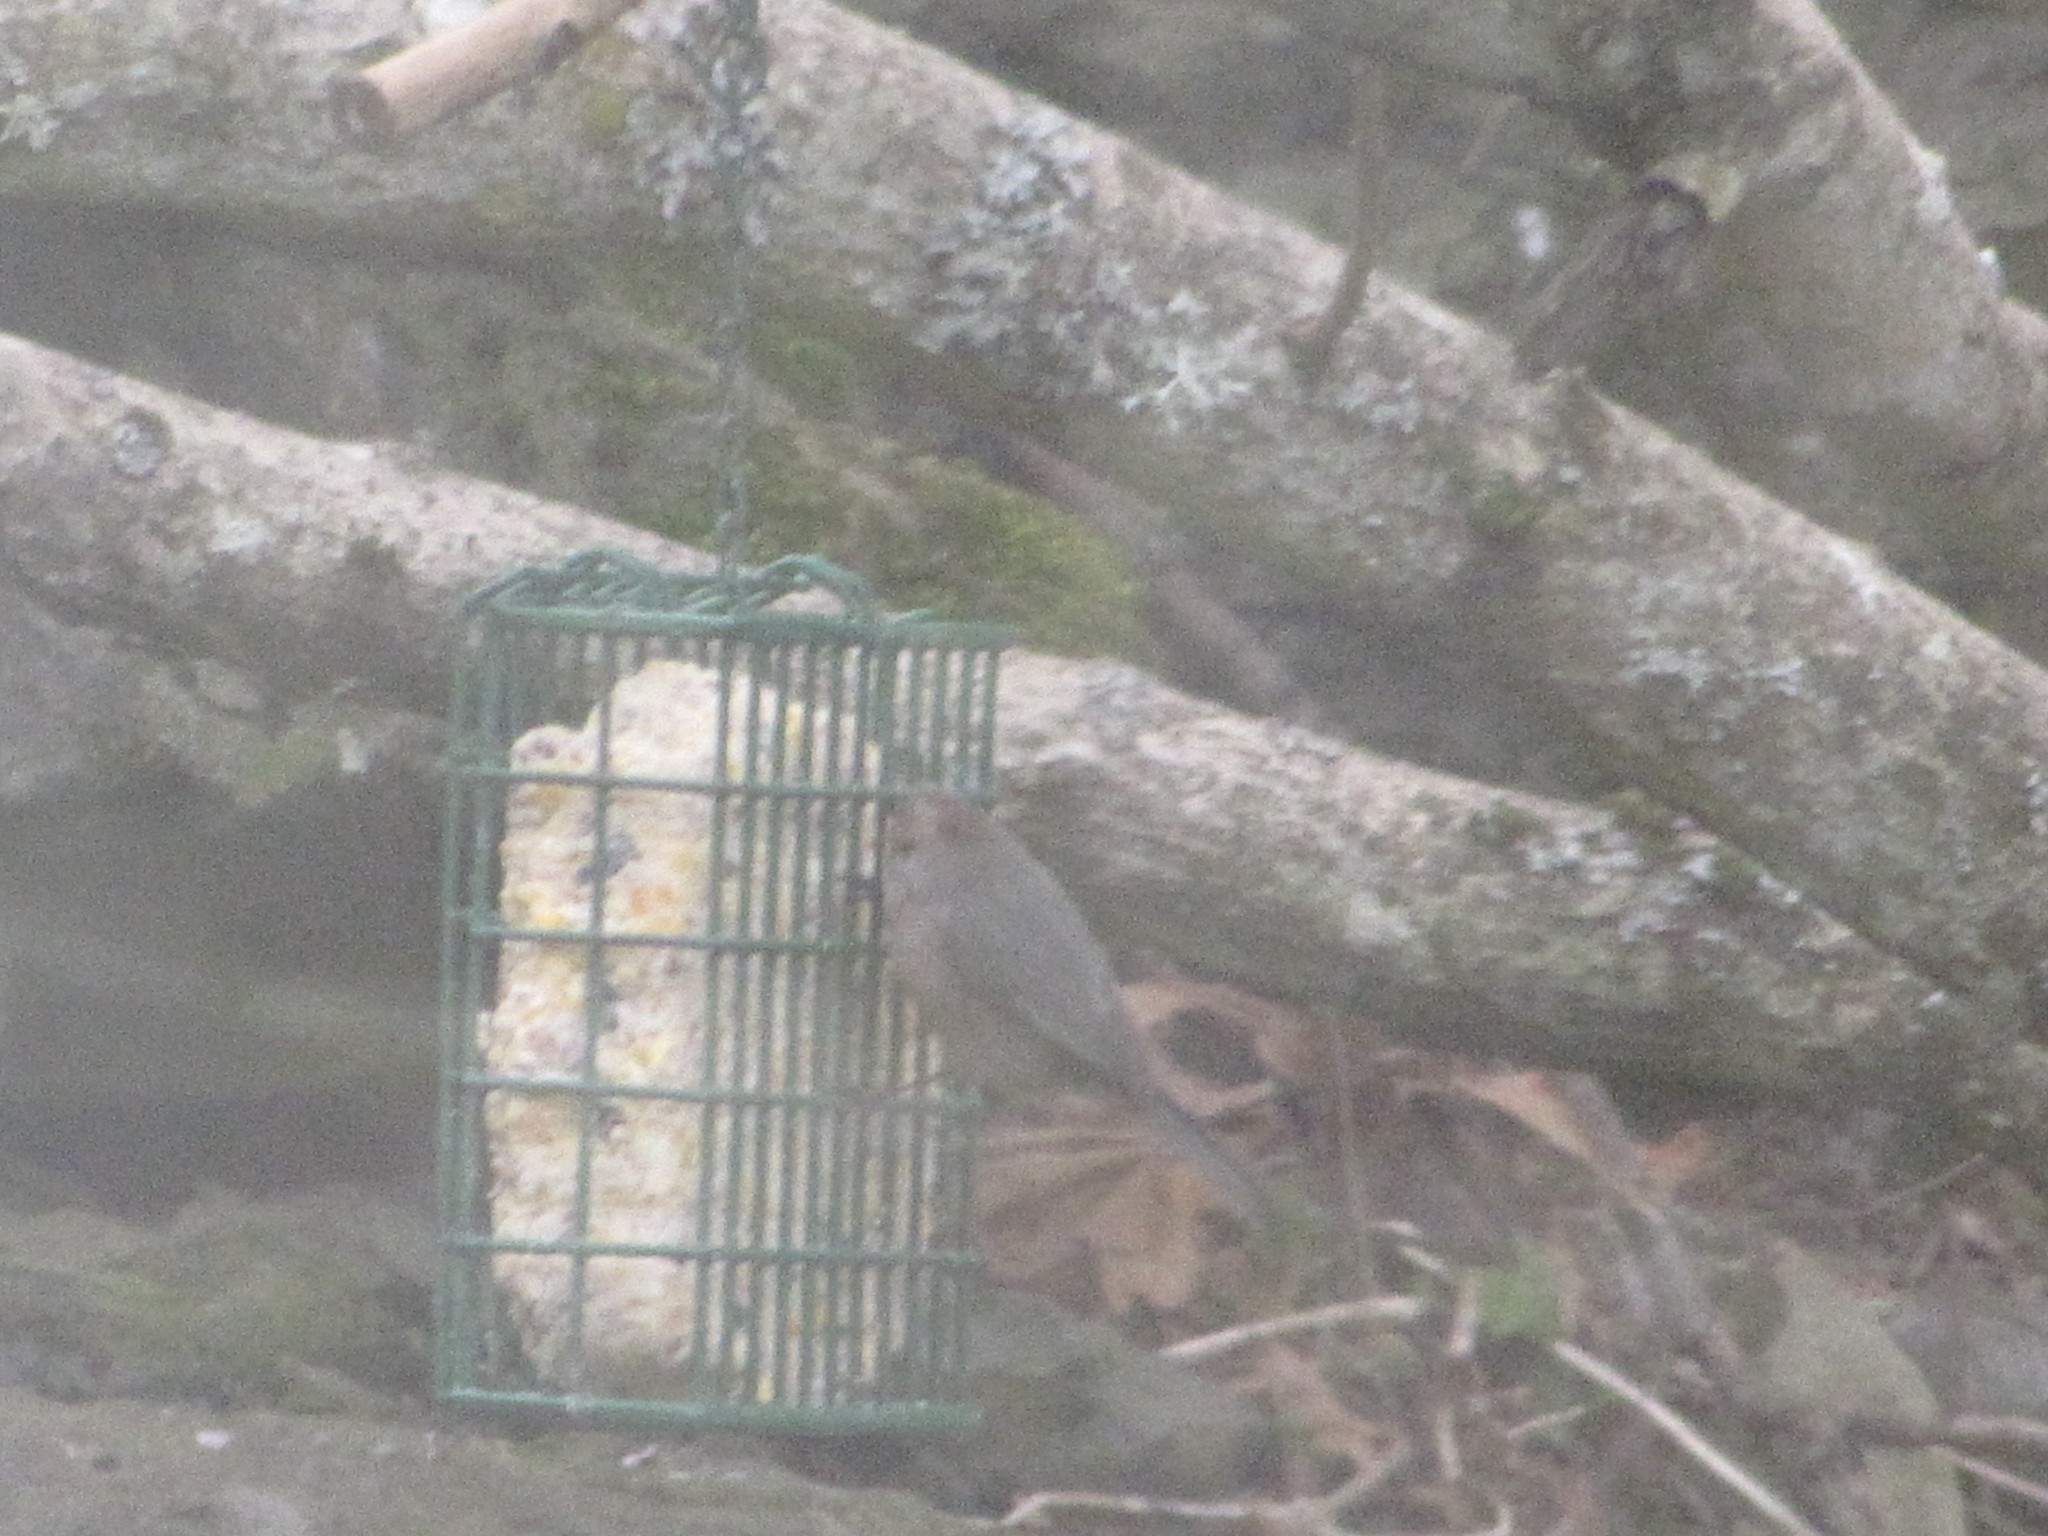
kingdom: Animalia
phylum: Chordata
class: Aves
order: Passeriformes
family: Aegithalidae
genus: Psaltriparus
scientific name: Psaltriparus minimus
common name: American bushtit
